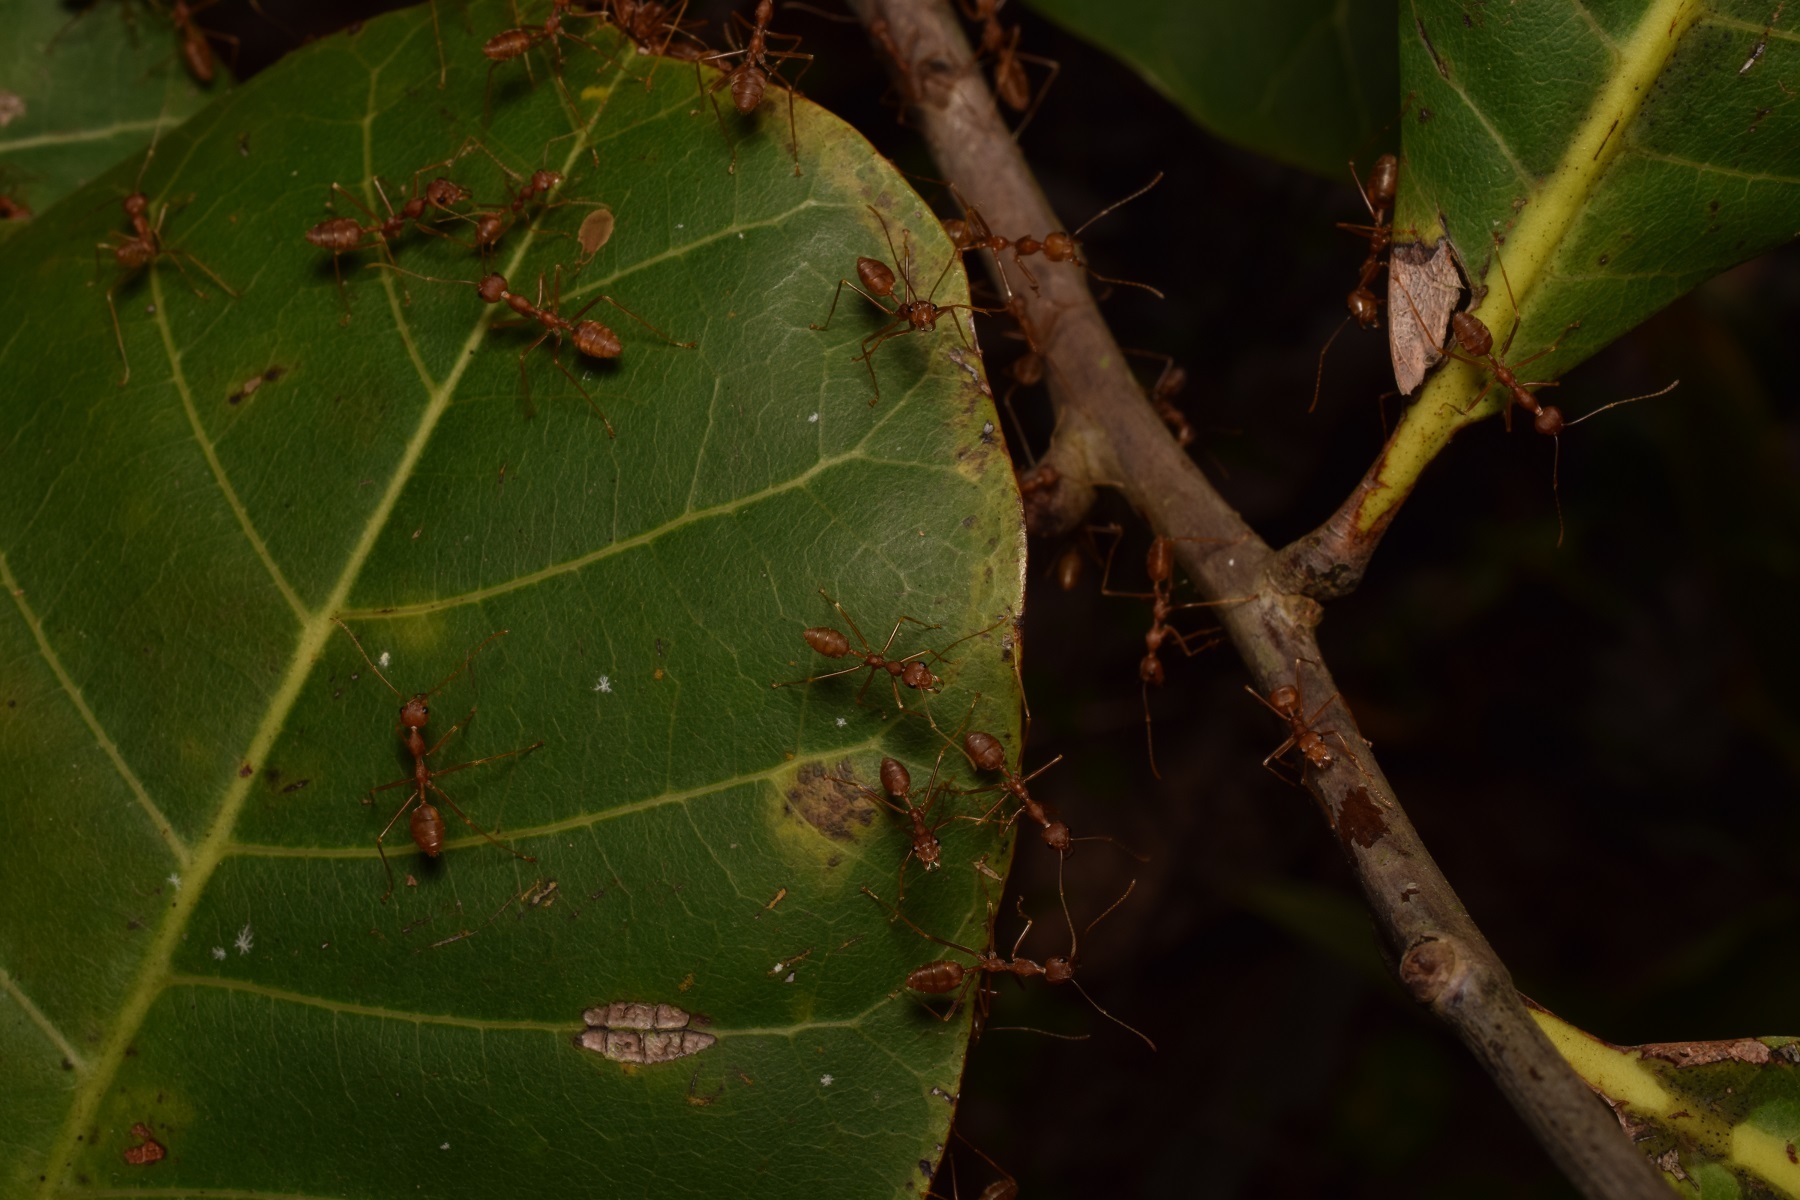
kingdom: Animalia
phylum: Arthropoda
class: Insecta
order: Hymenoptera
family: Formicidae
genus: Oecophylla
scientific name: Oecophylla smaragdina
